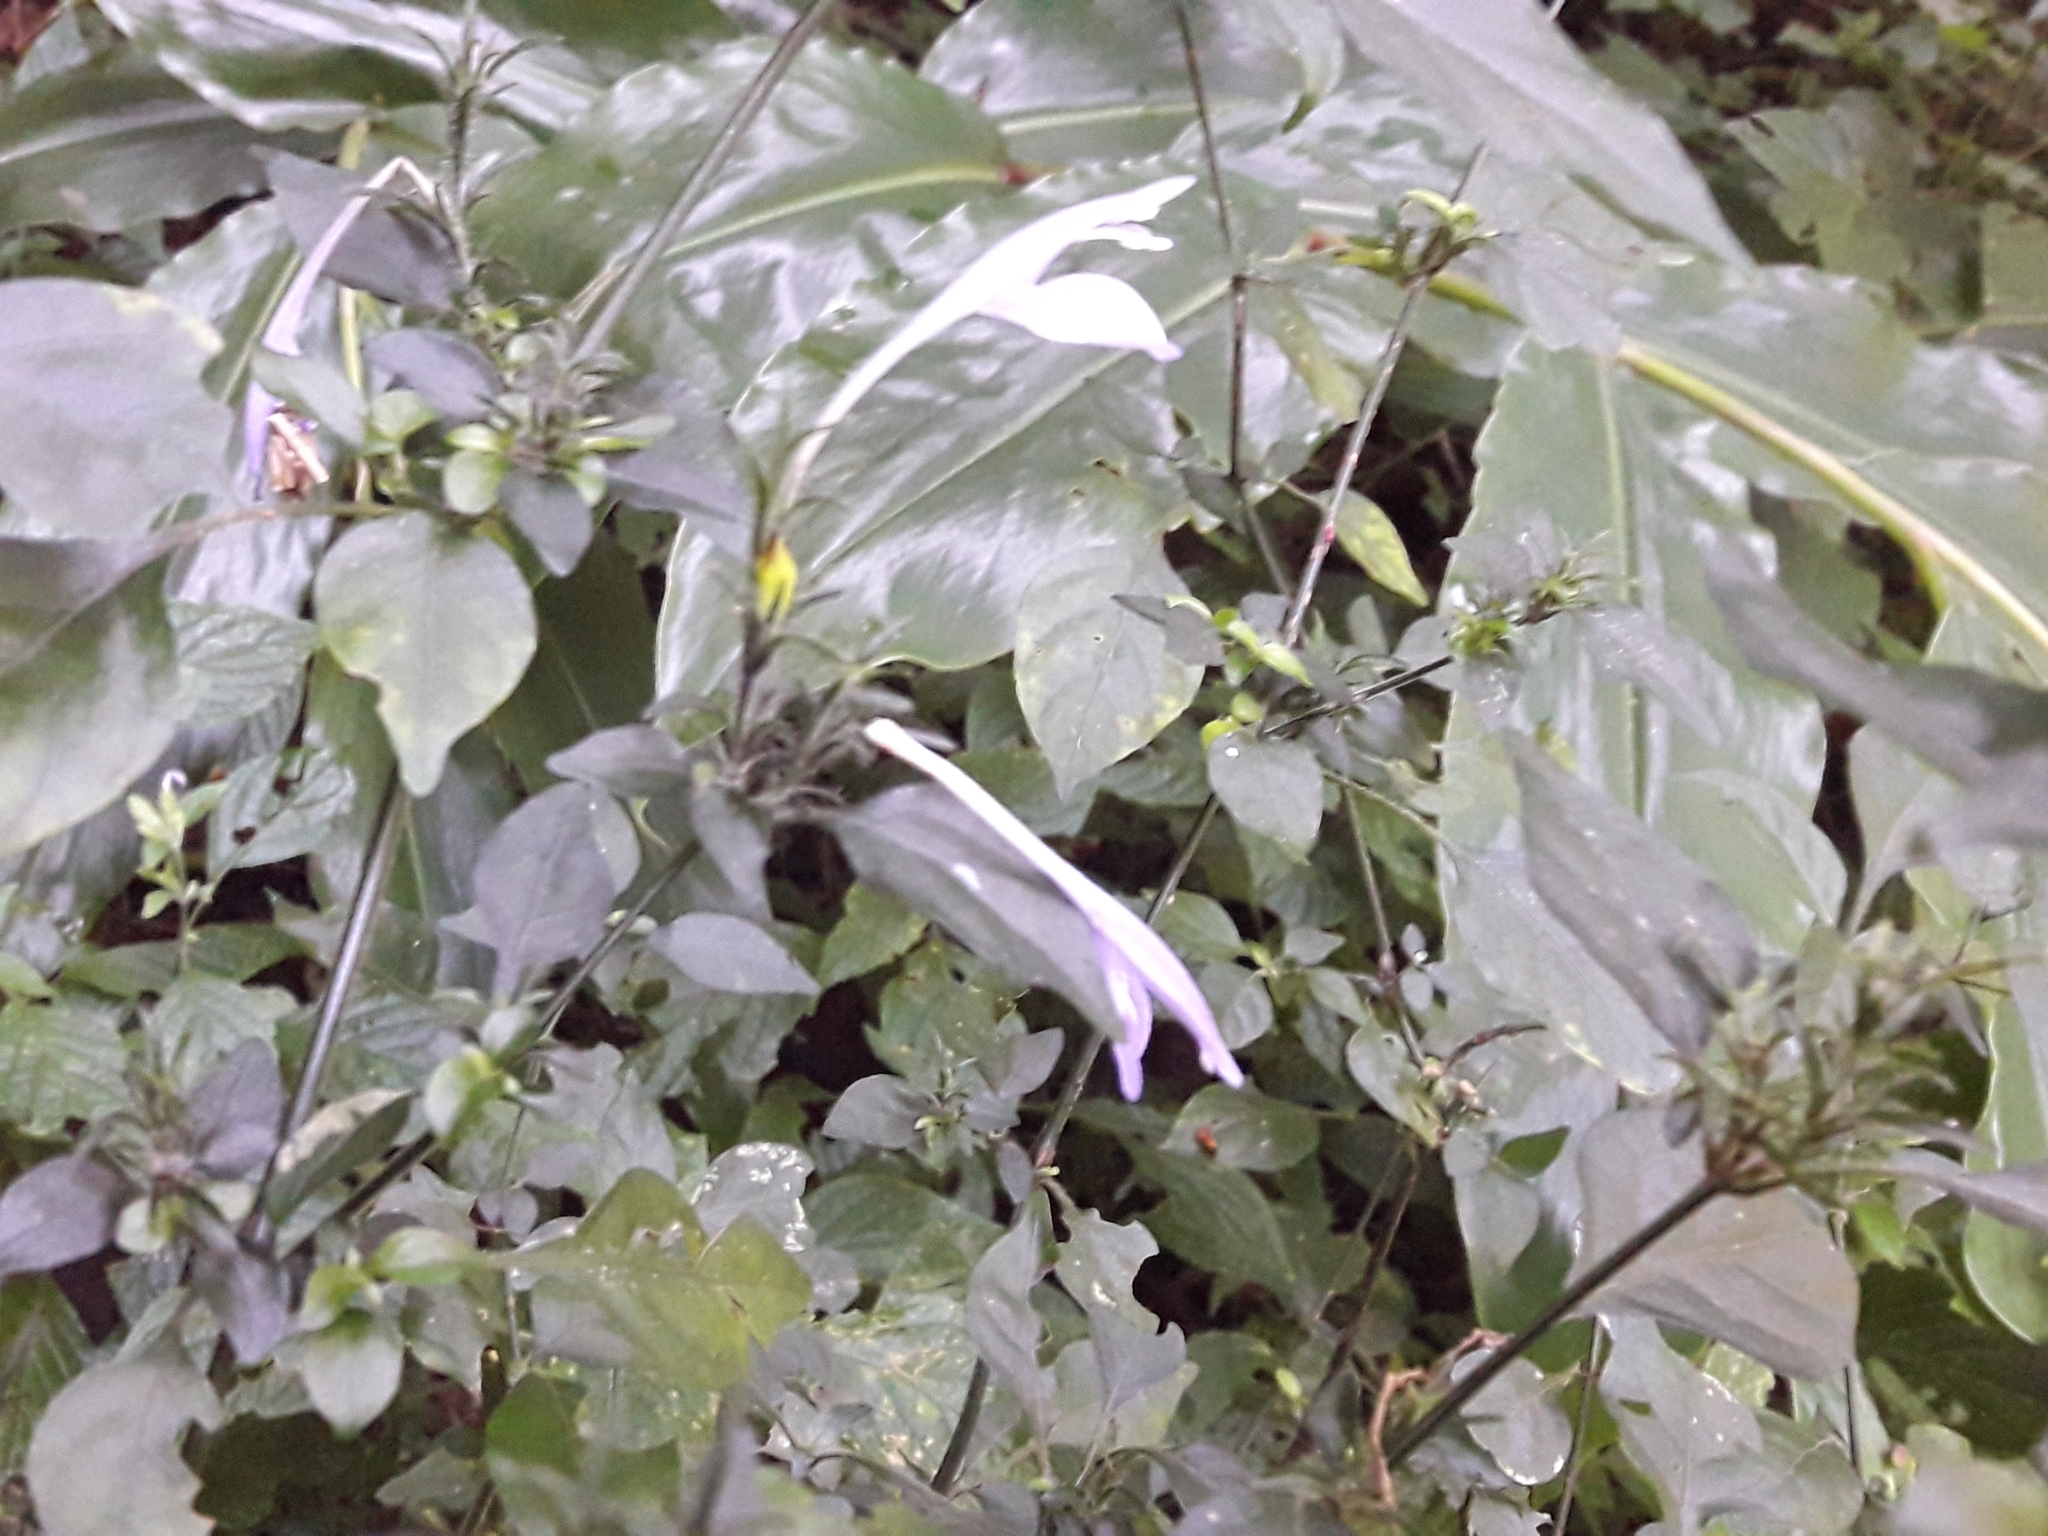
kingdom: Plantae
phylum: Tracheophyta
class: Magnoliopsida
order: Lamiales
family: Acanthaceae
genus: Isoglossa
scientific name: Isoglossa cooperi
